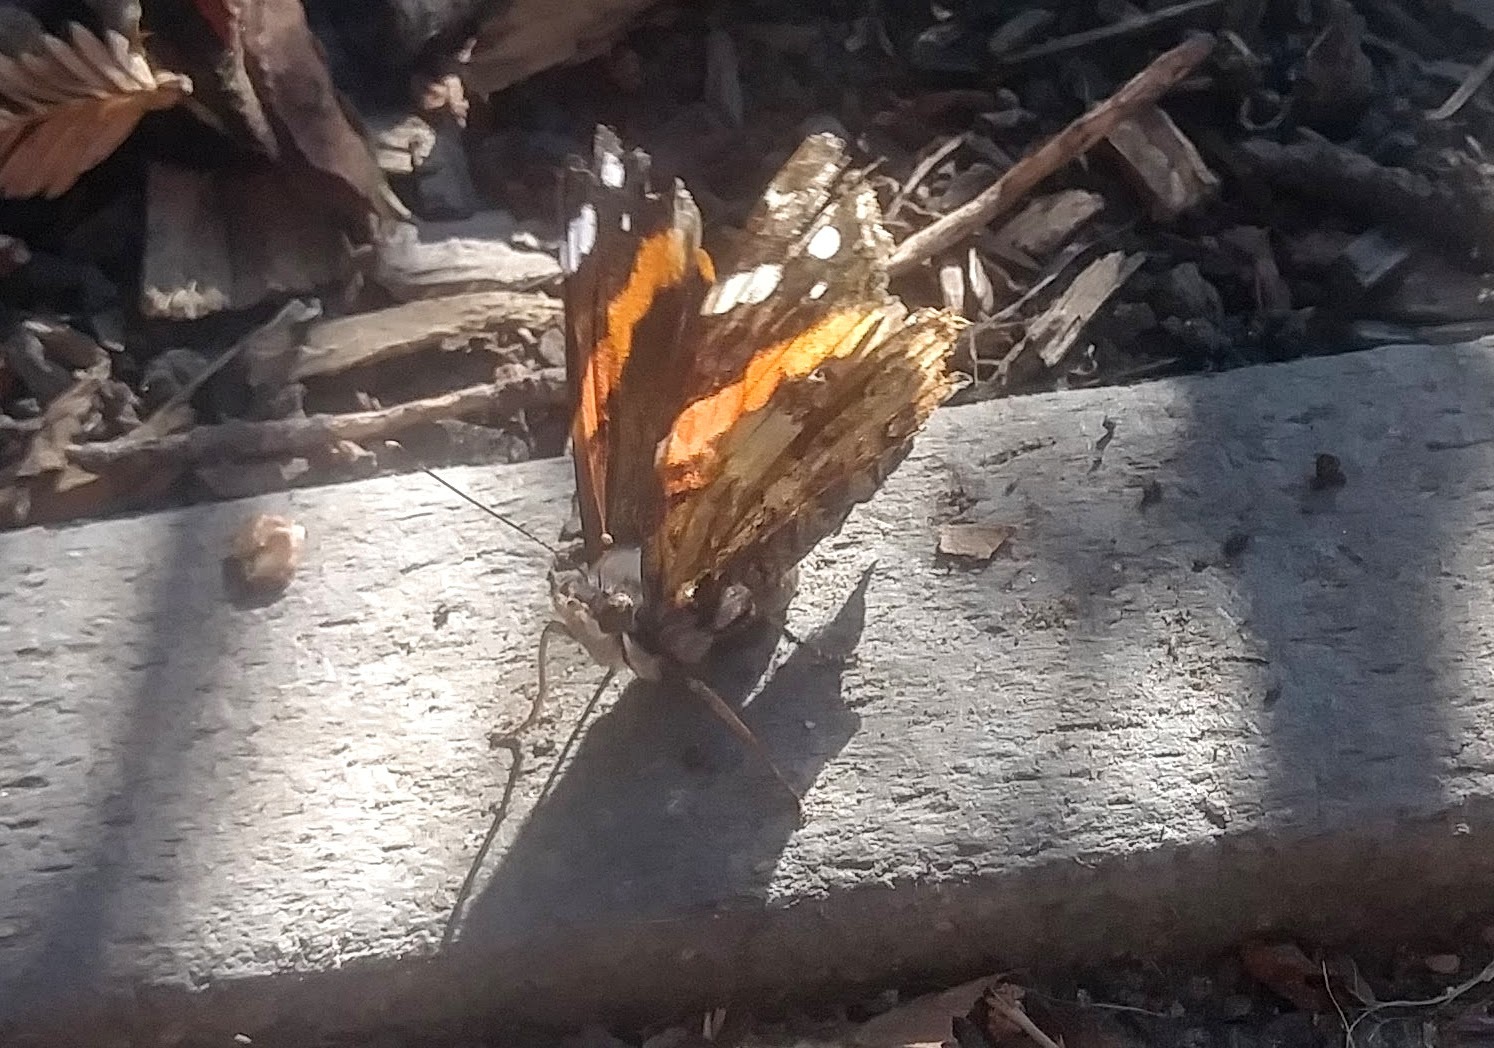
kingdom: Animalia
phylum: Arthropoda
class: Insecta
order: Lepidoptera
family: Nymphalidae
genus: Vanessa
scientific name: Vanessa atalanta
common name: Red admiral
